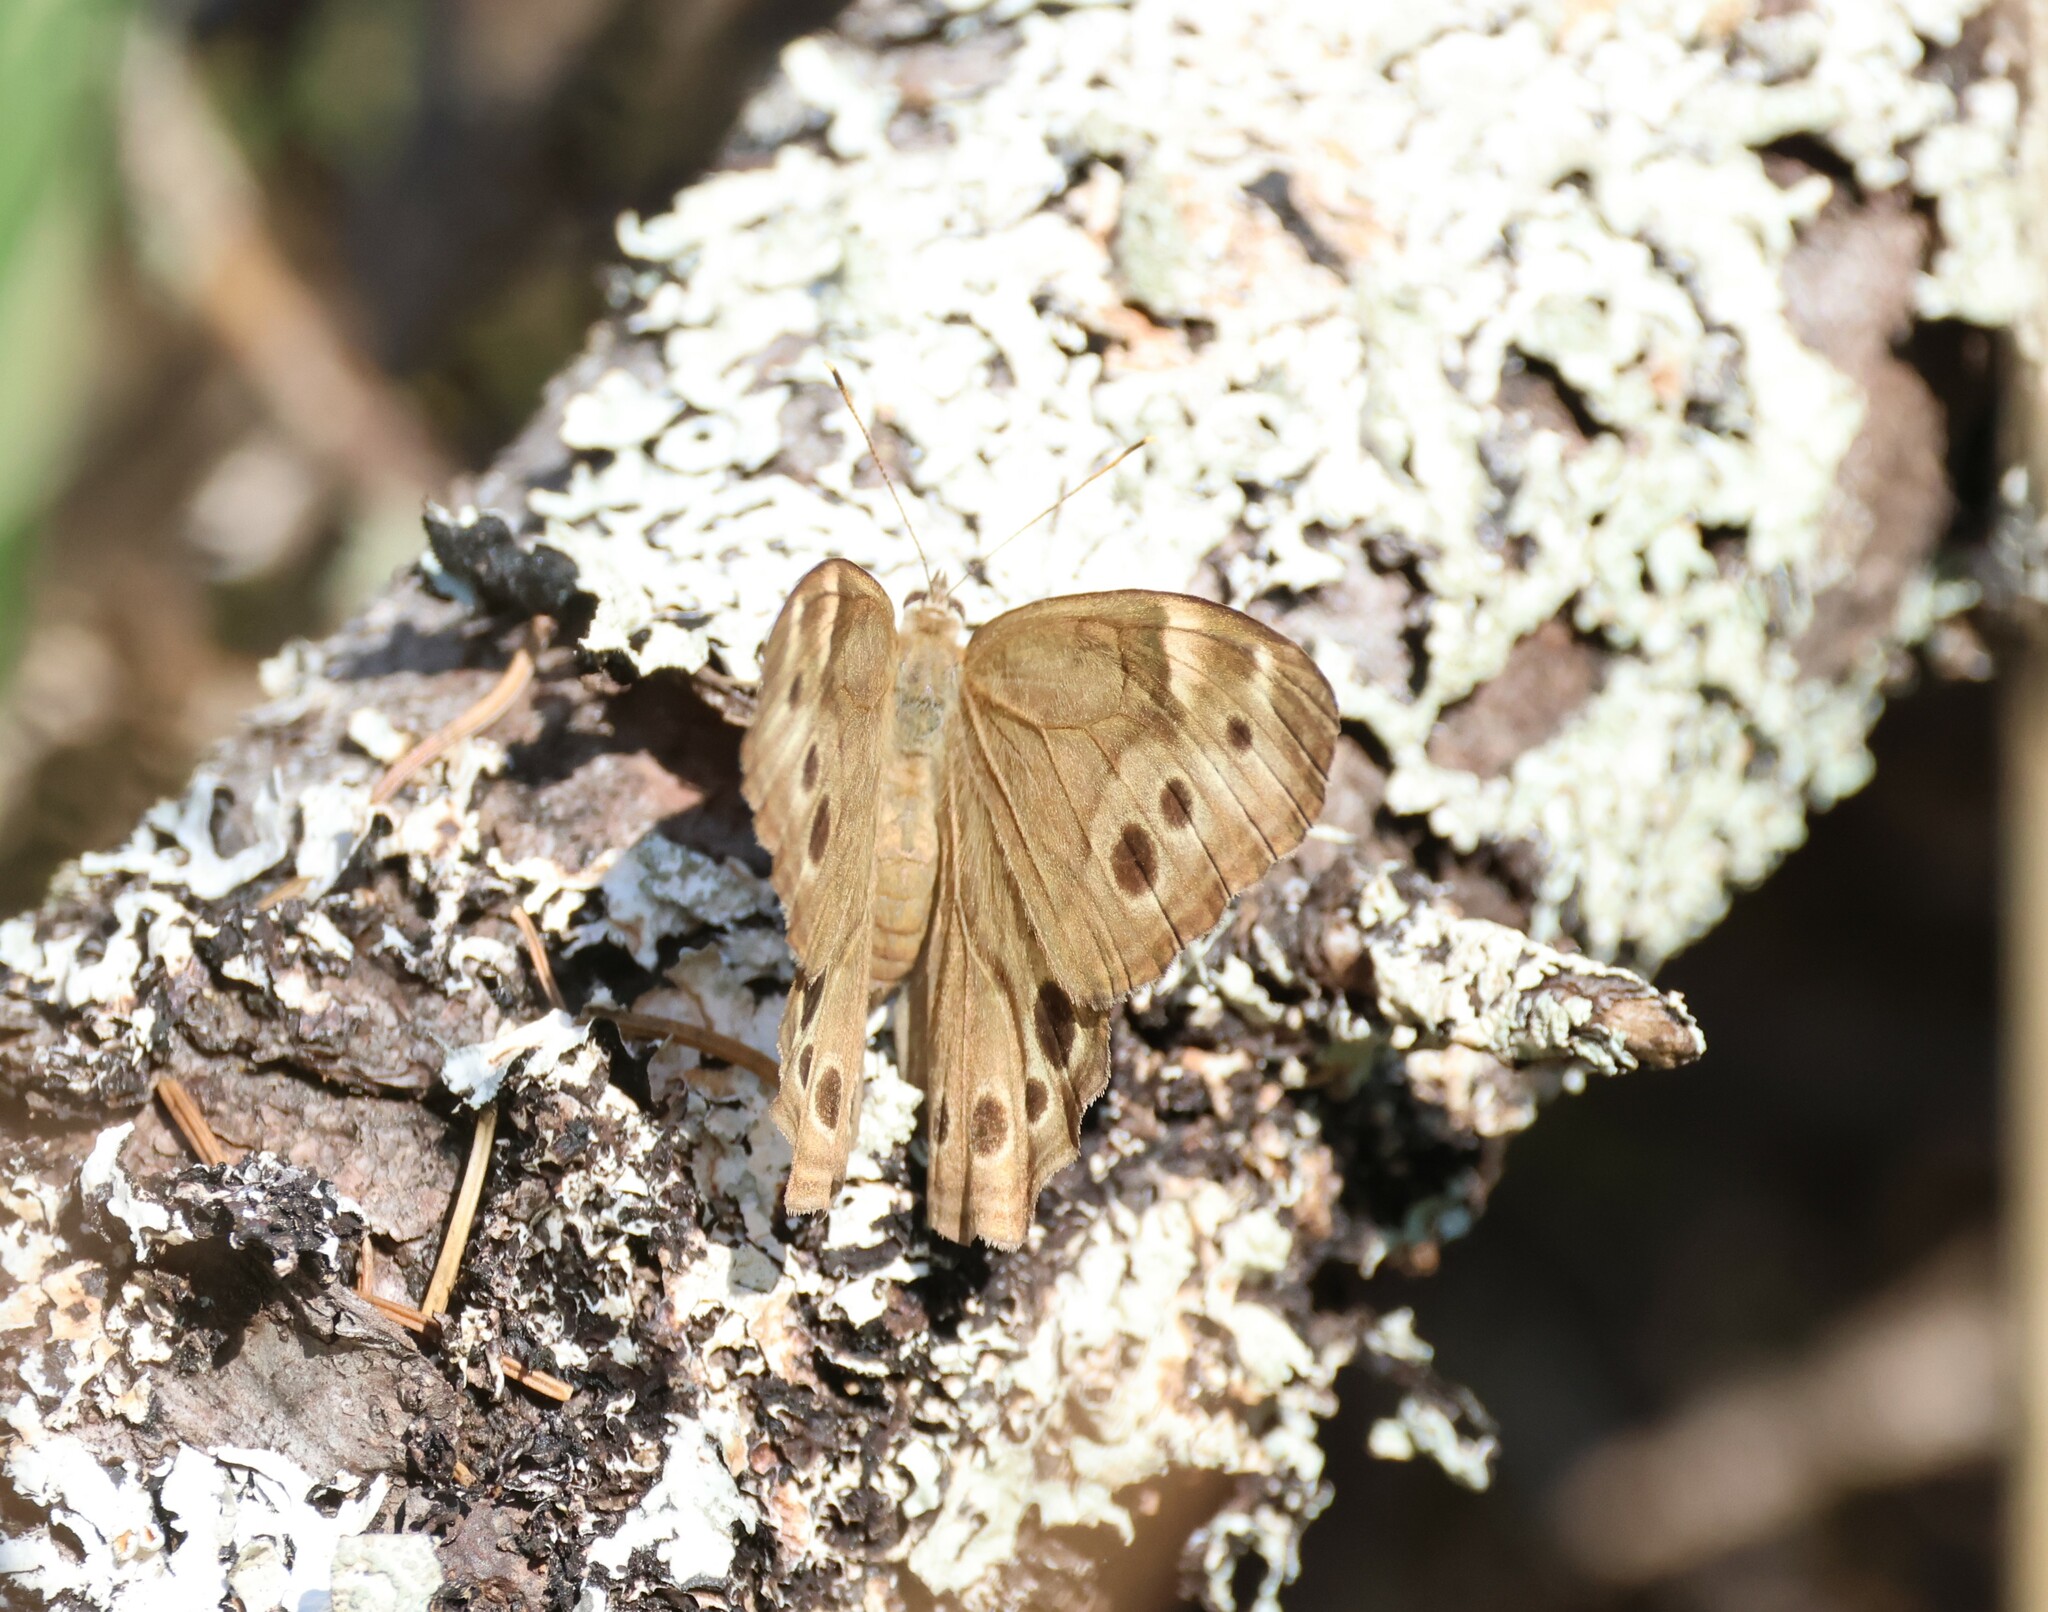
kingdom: Animalia
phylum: Arthropoda
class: Insecta
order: Lepidoptera
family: Nymphalidae
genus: Lethe
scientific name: Lethe anthedon
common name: Northern pearly-eye
